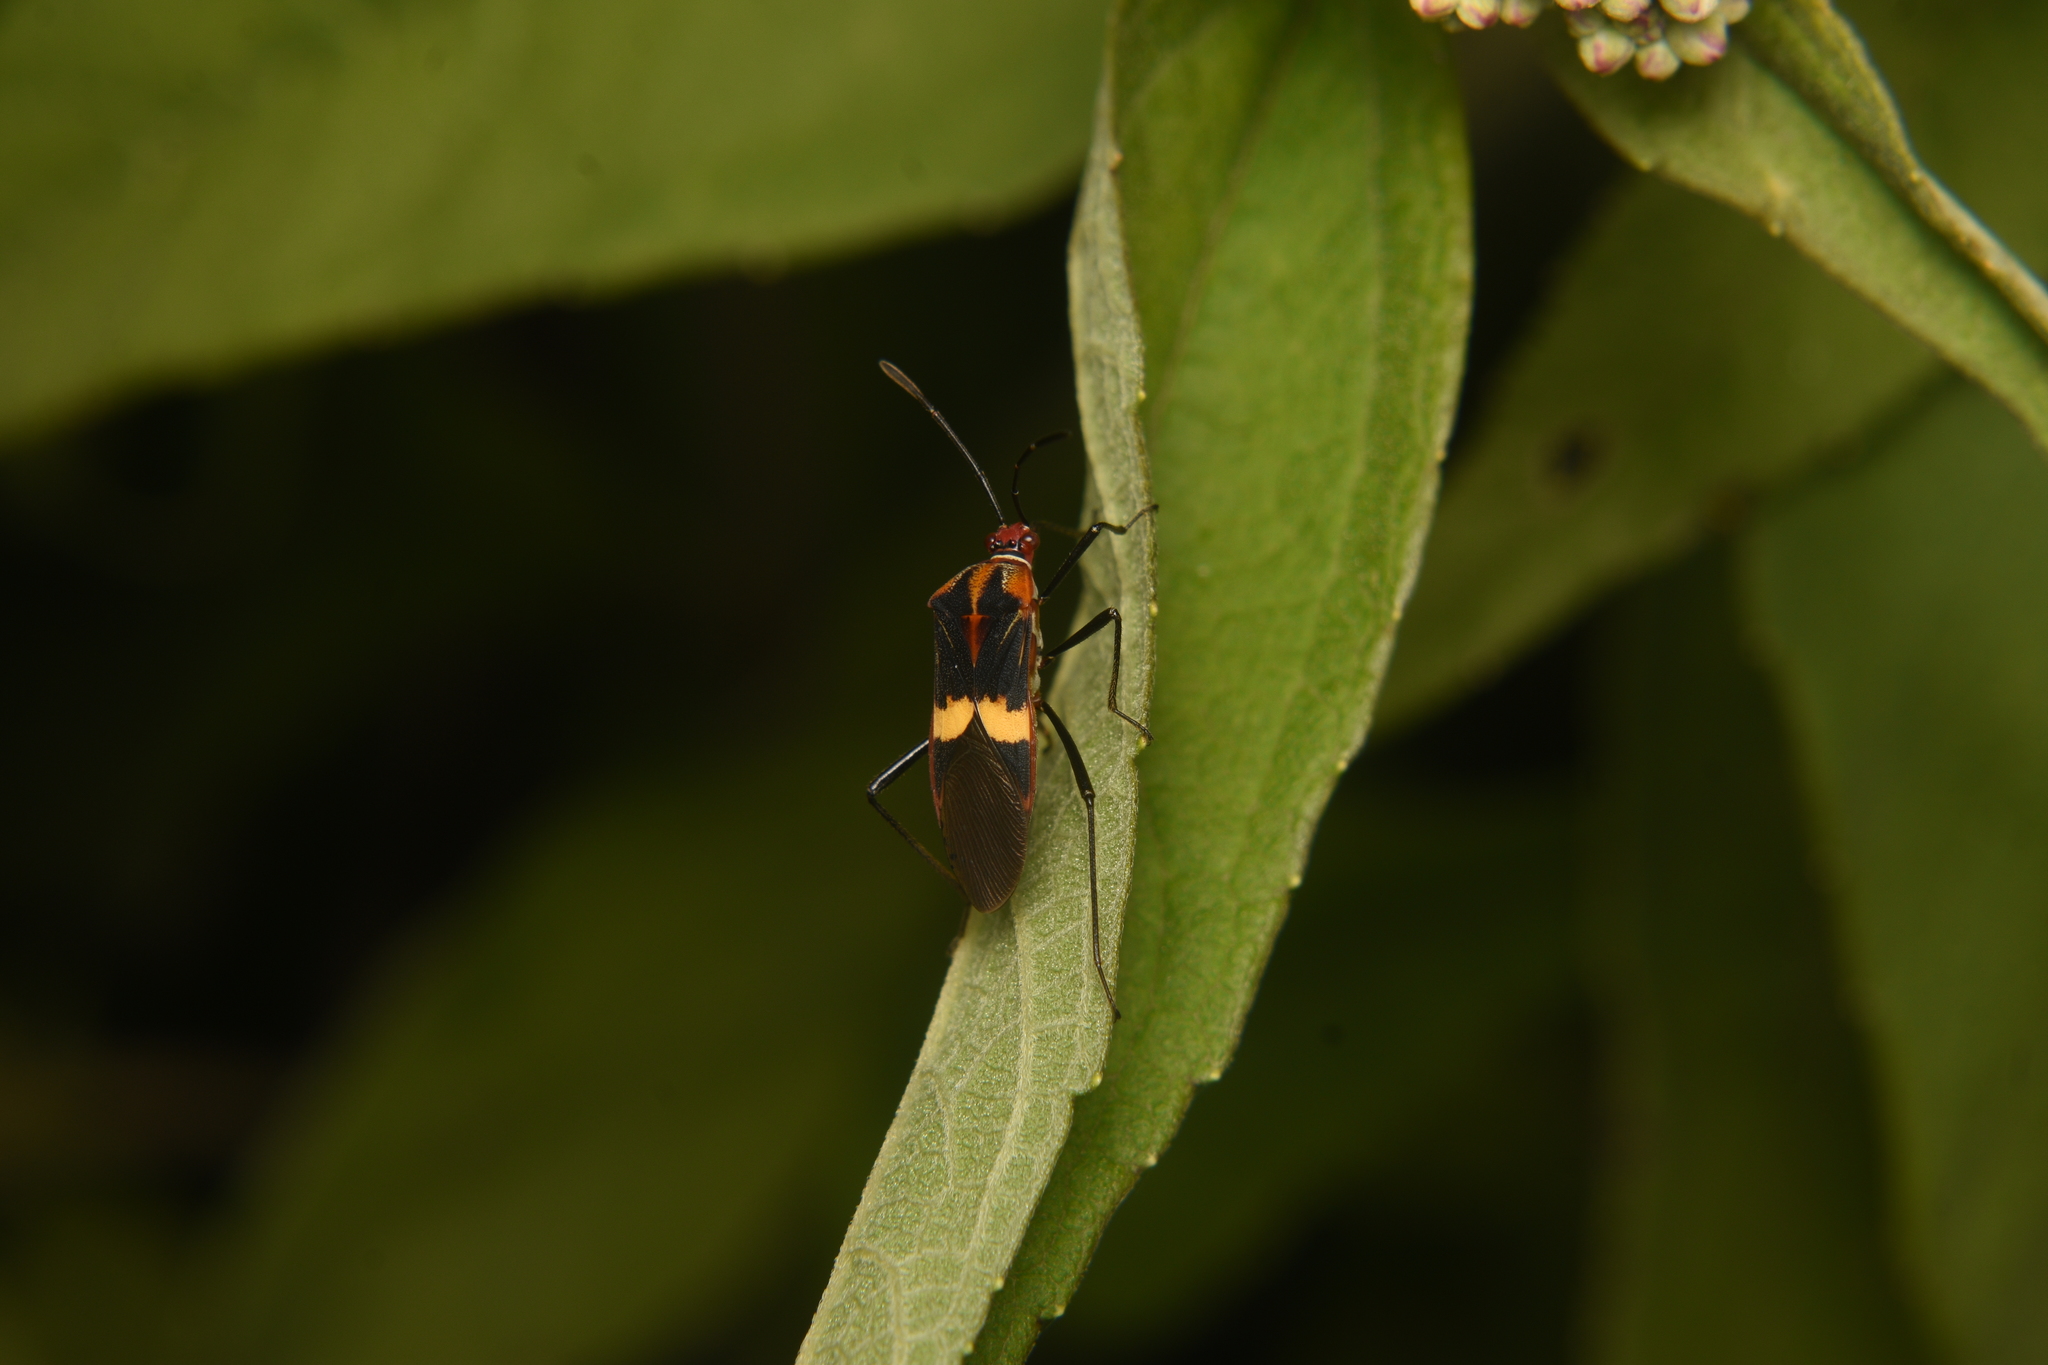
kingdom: Animalia
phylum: Arthropoda
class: Insecta
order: Hemiptera
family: Coreidae
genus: Hypselonotus
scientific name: Hypselonotus interruptus
